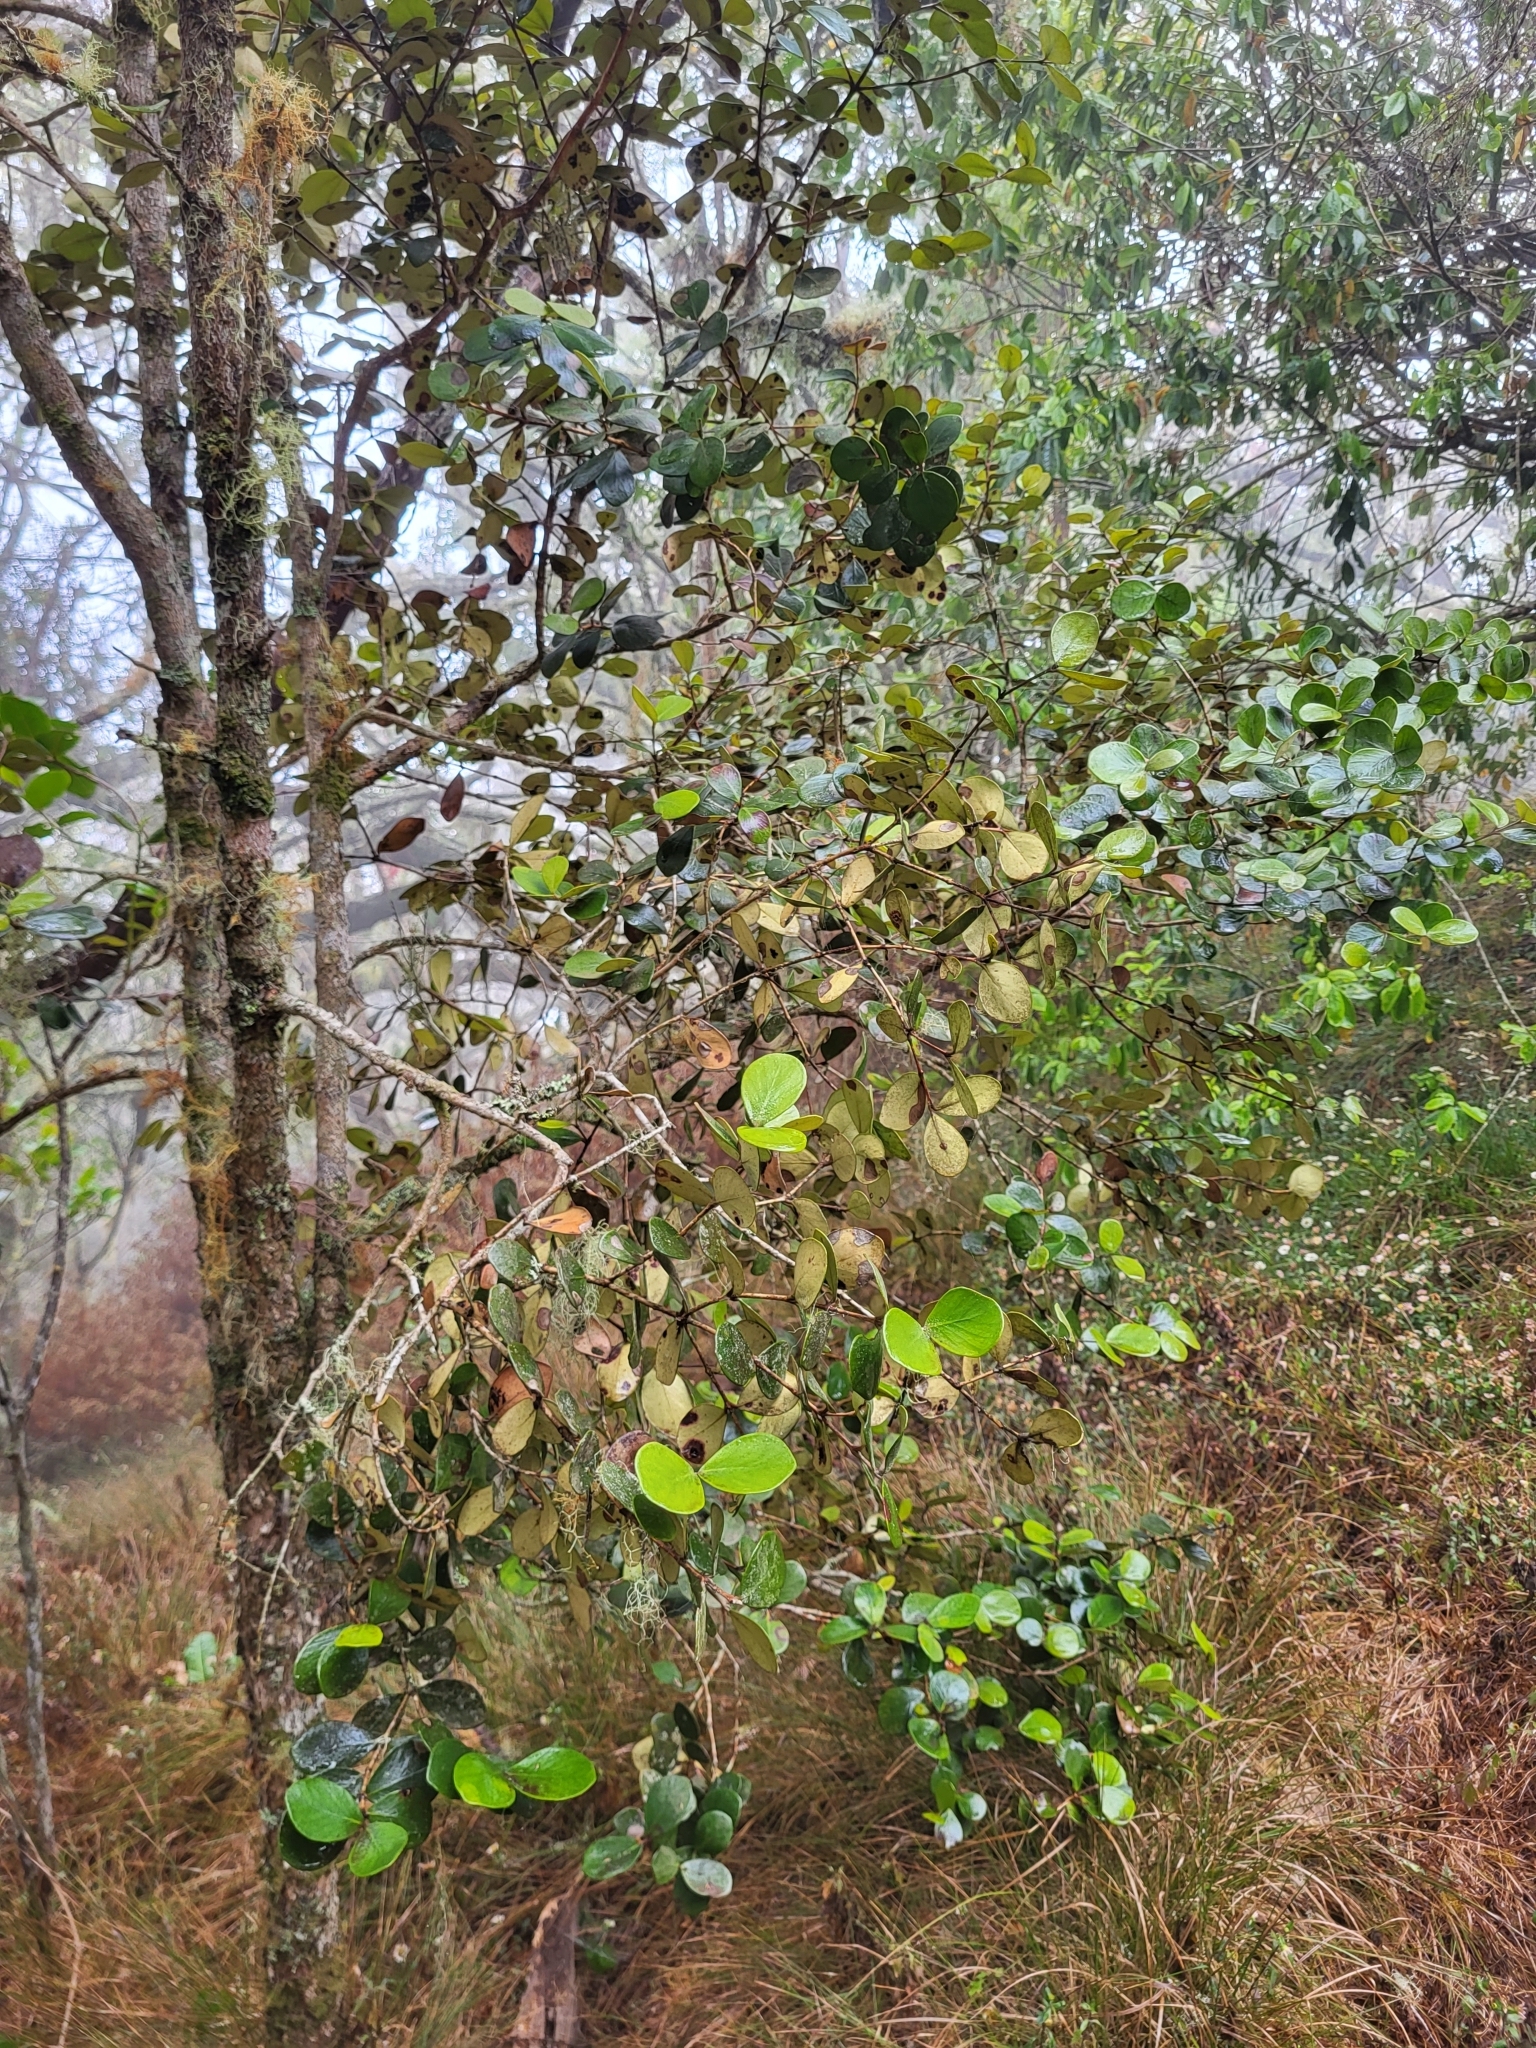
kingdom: Plantae
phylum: Tracheophyta
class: Magnoliopsida
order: Myrtales
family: Myrtaceae
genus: Eugenia
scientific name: Eugenia buxifolia
